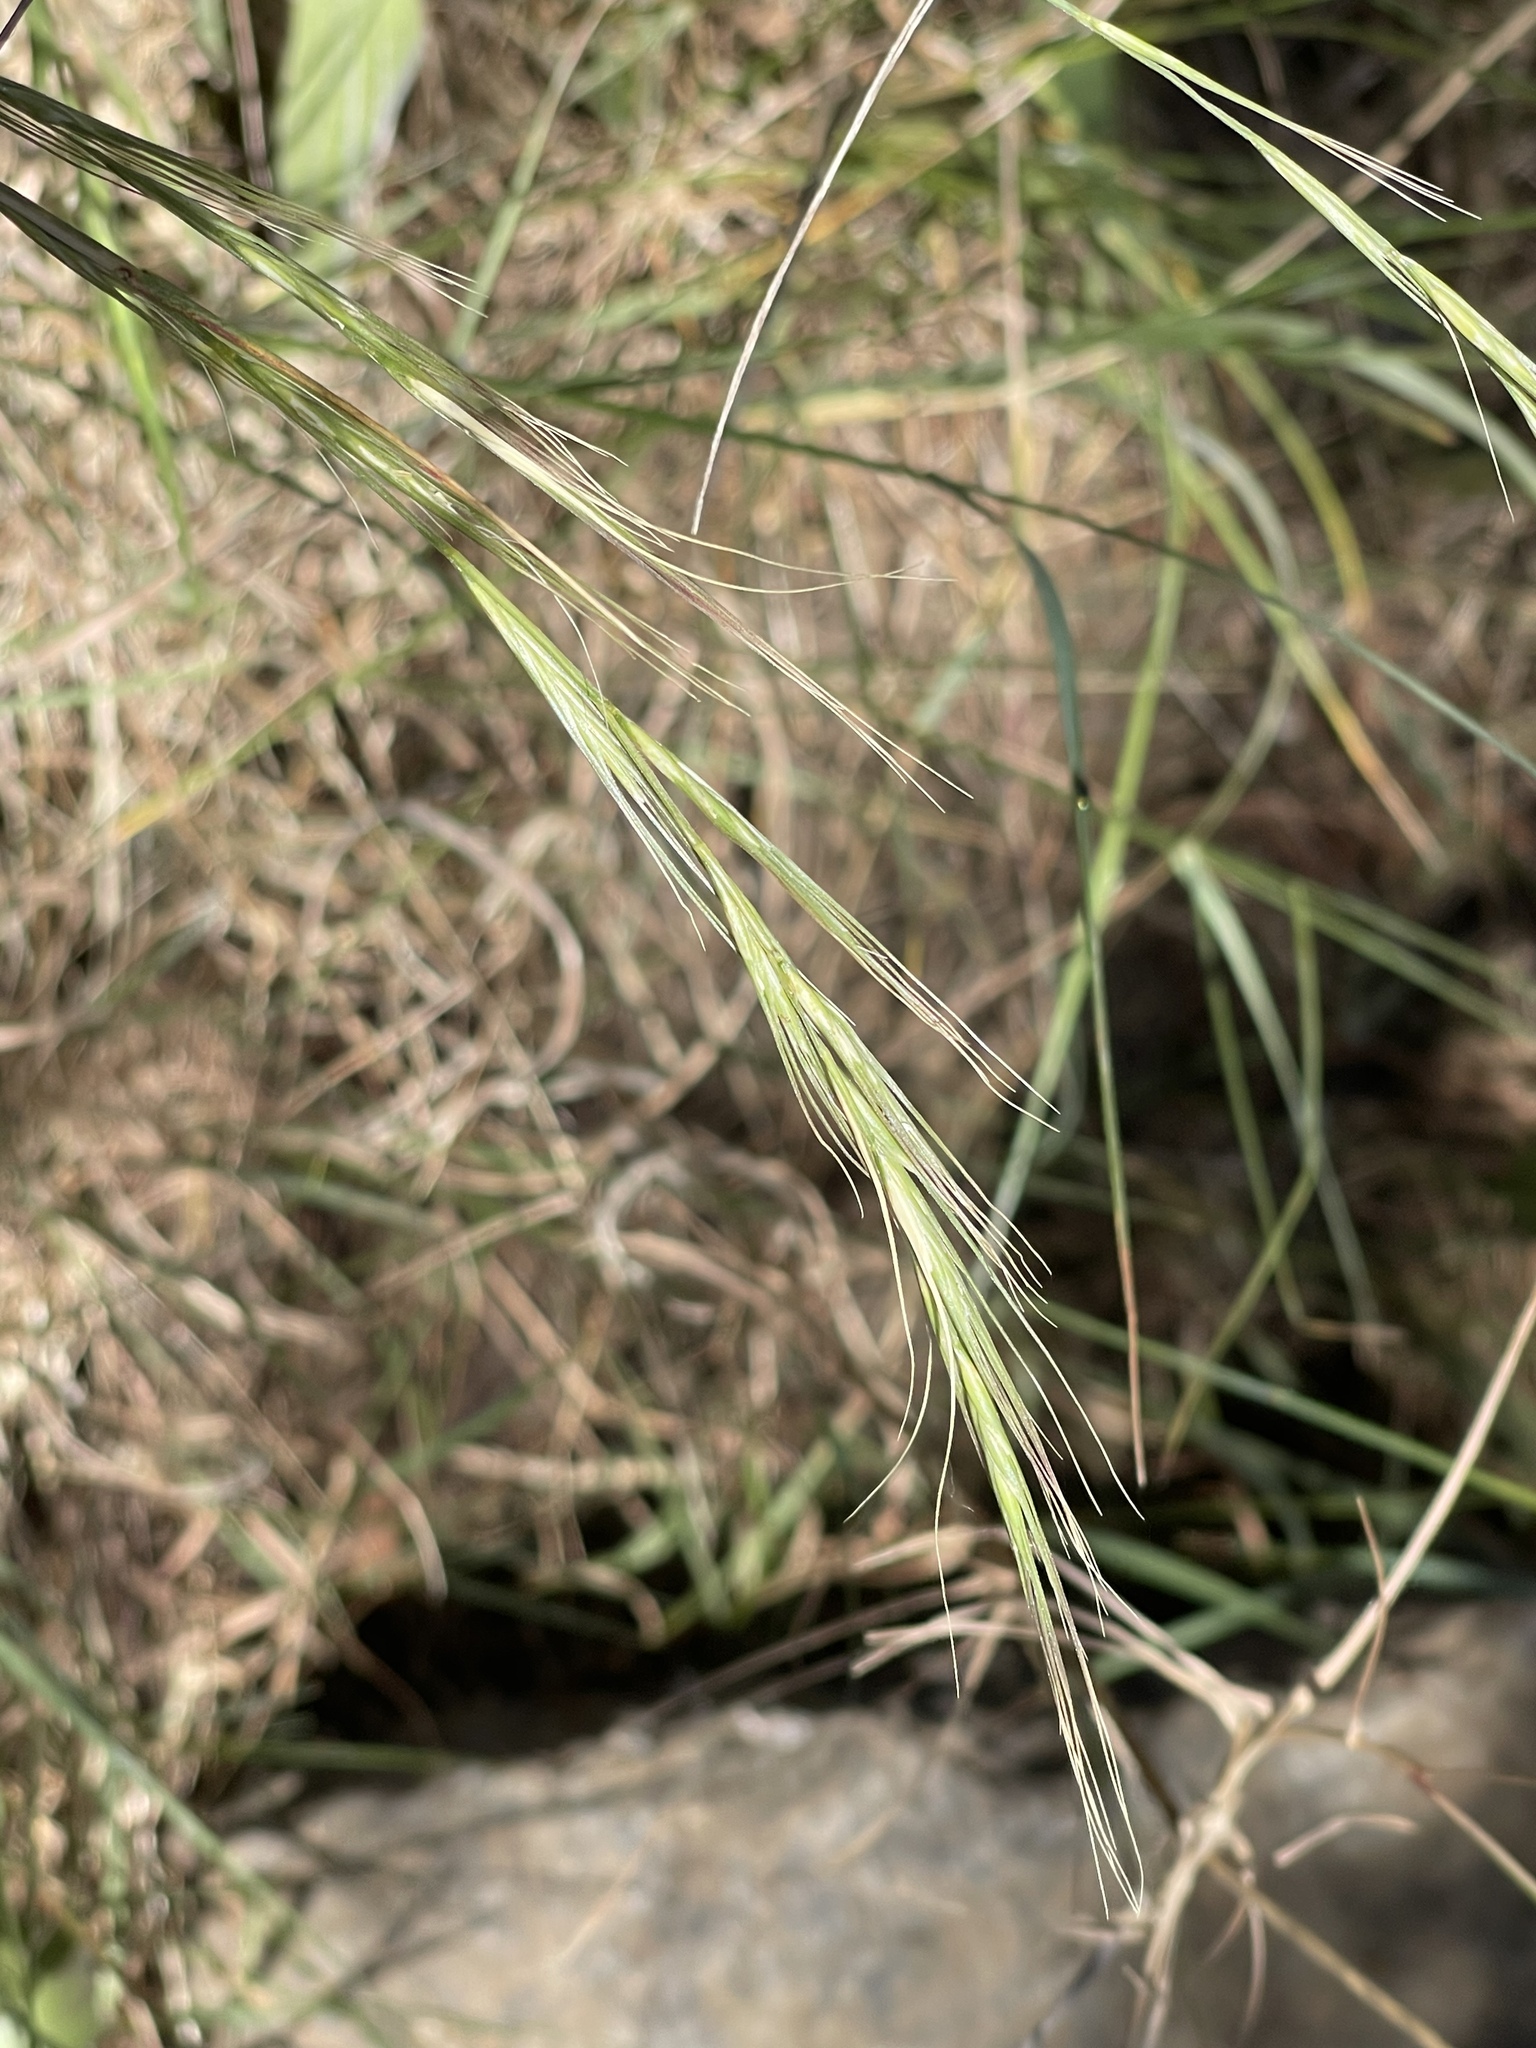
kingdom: Plantae
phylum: Tracheophyta
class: Liliopsida
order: Poales
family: Poaceae
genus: Anthosachne
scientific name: Anthosachne scabra
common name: Common wheatgrass
